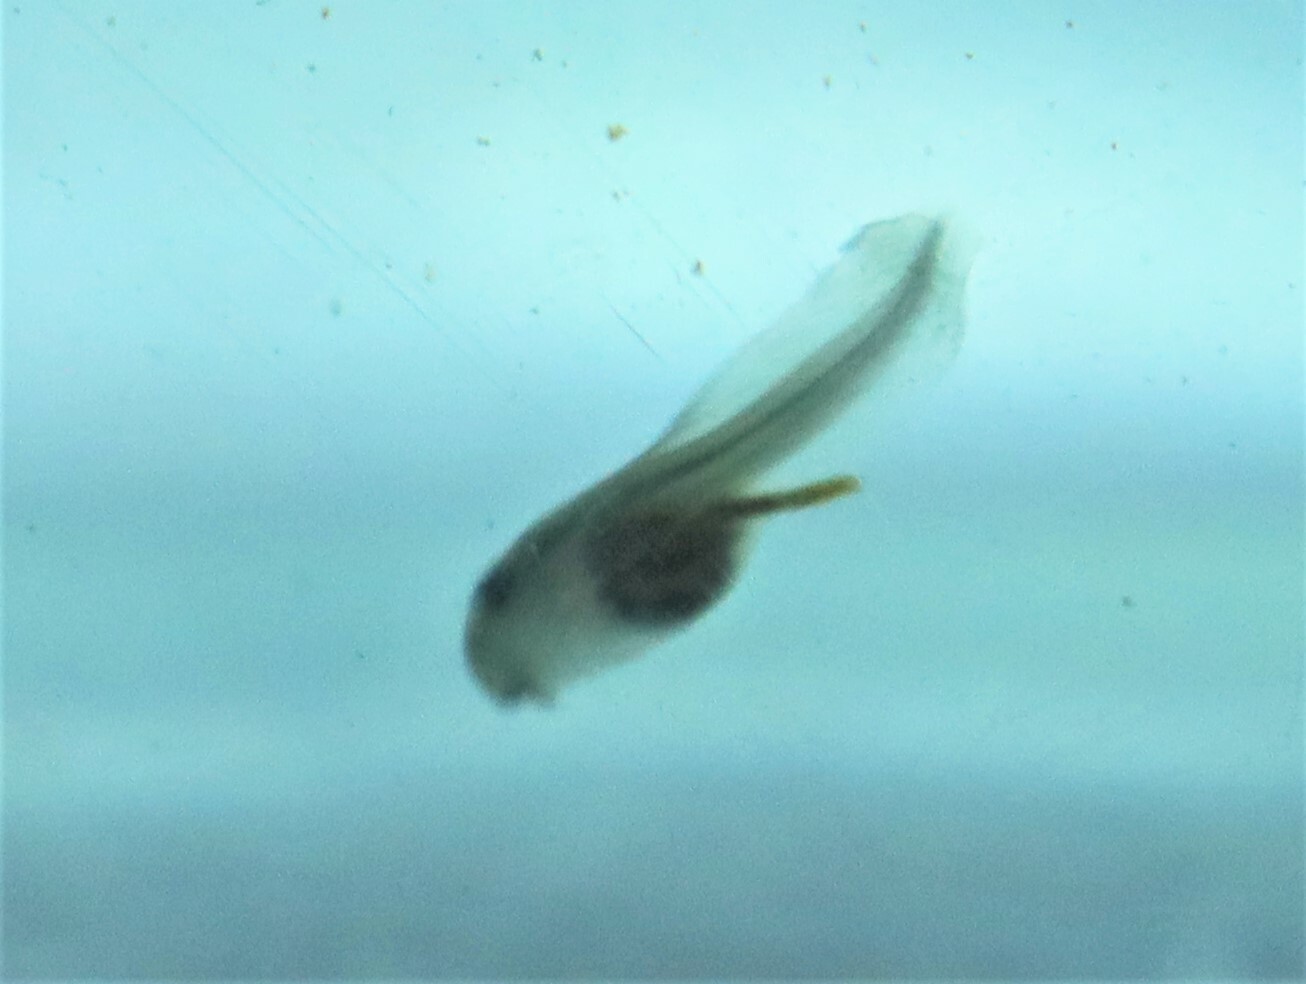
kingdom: Animalia
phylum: Chordata
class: Amphibia
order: Anura
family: Ranidae
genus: Lithobates
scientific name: Lithobates clamitans
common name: Green frog
